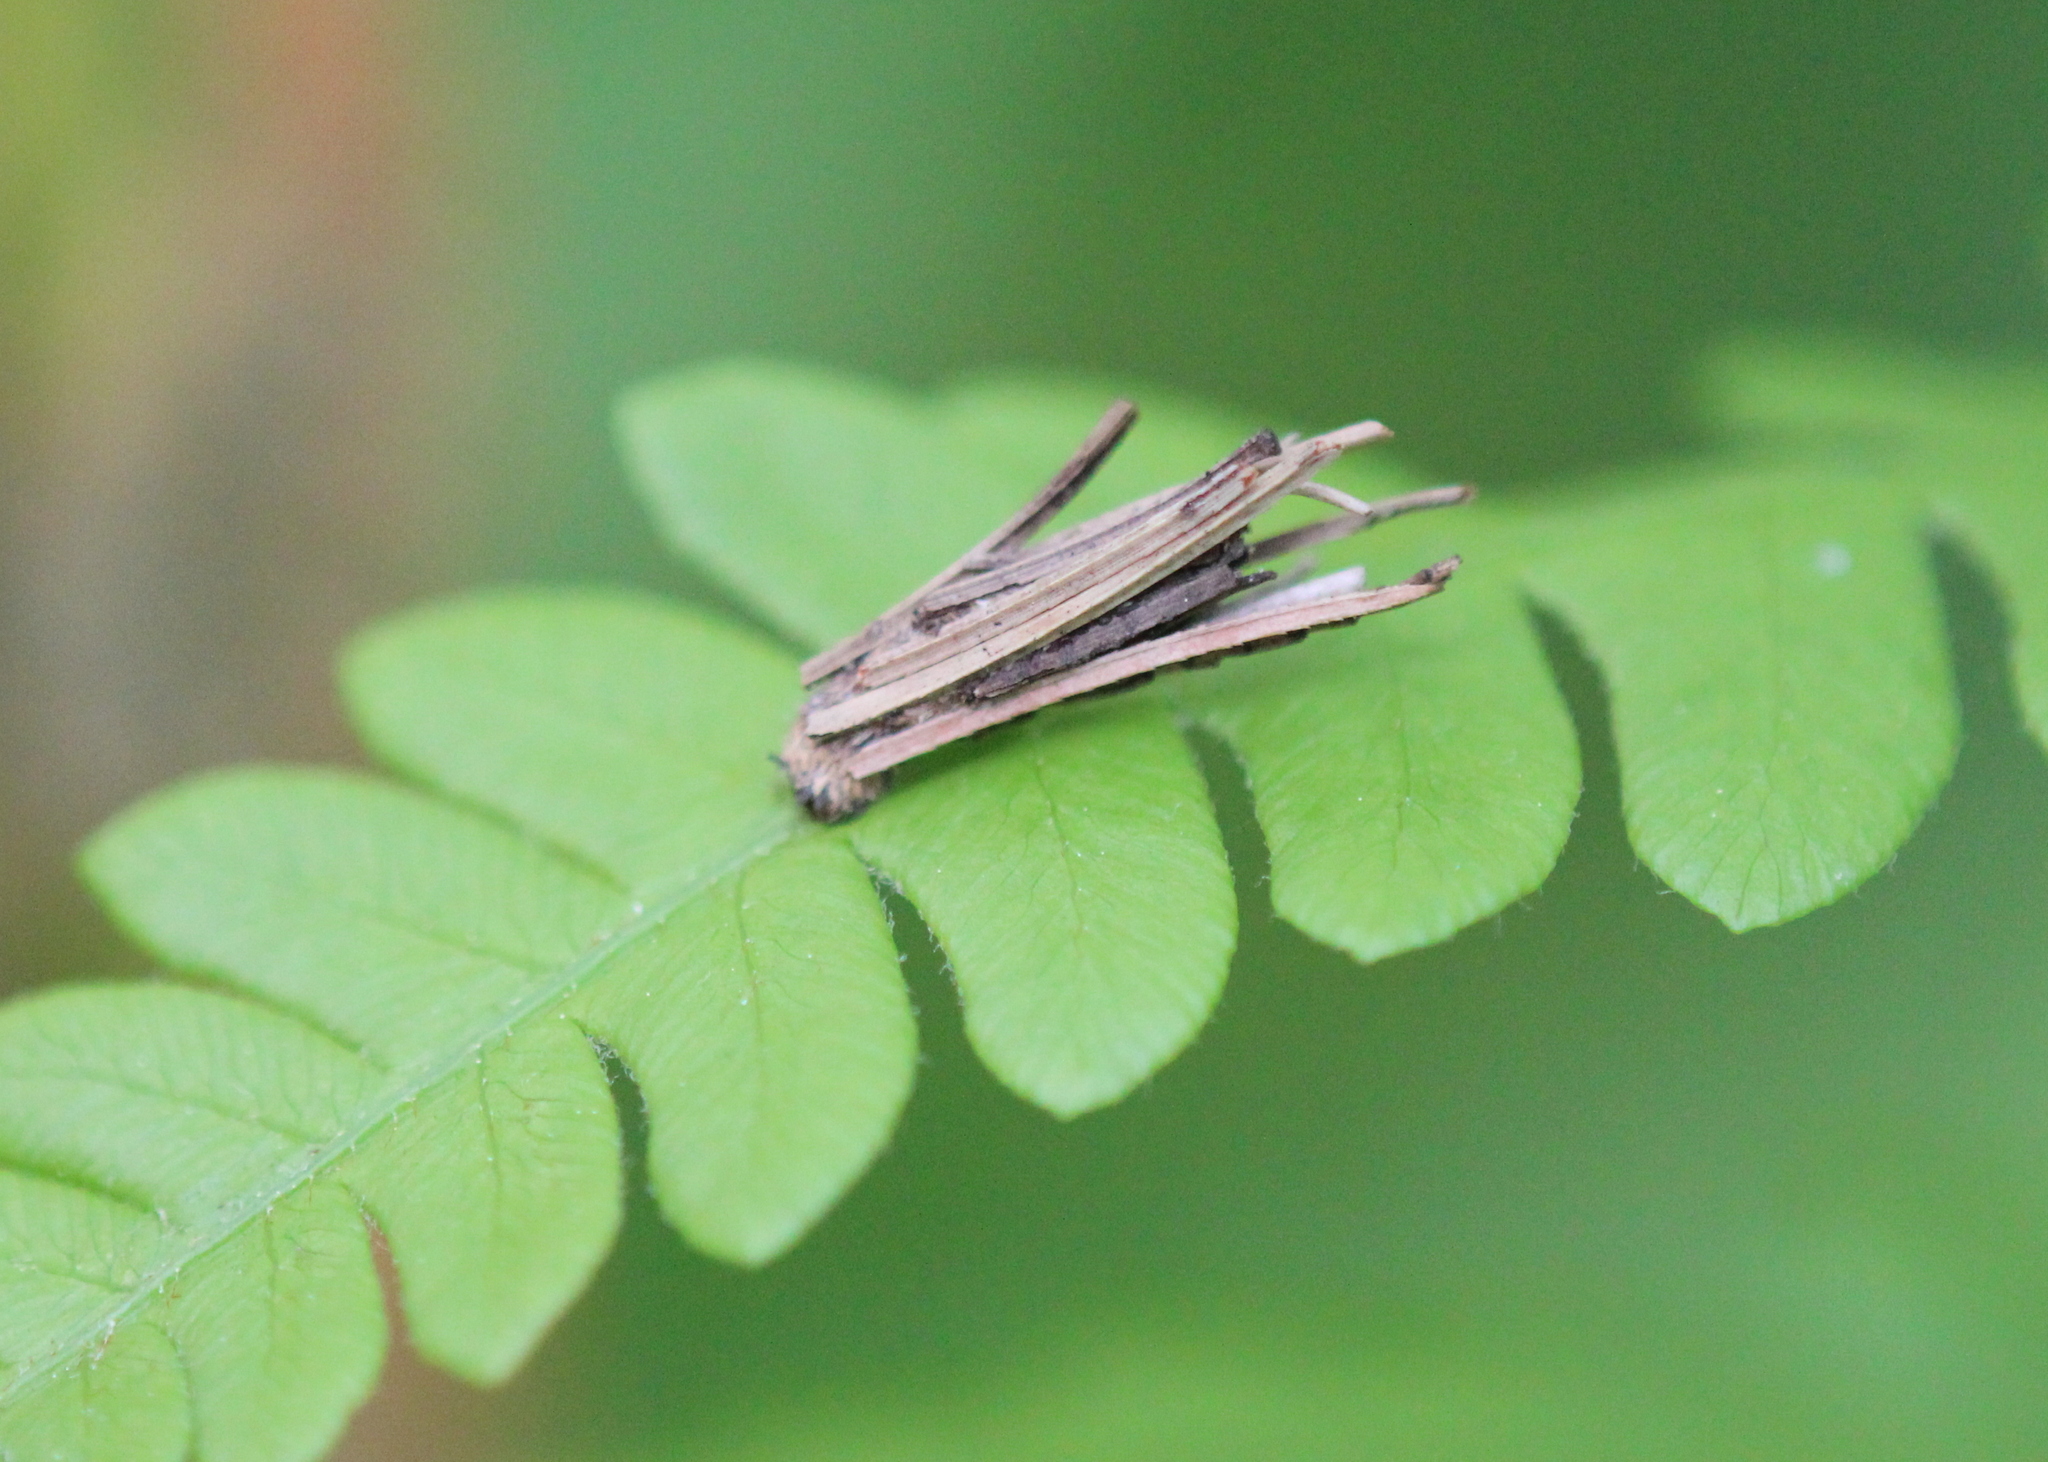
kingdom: Animalia
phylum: Arthropoda
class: Insecta
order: Lepidoptera
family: Psychidae
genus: Psyche
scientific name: Psyche casta
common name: Common sweep
